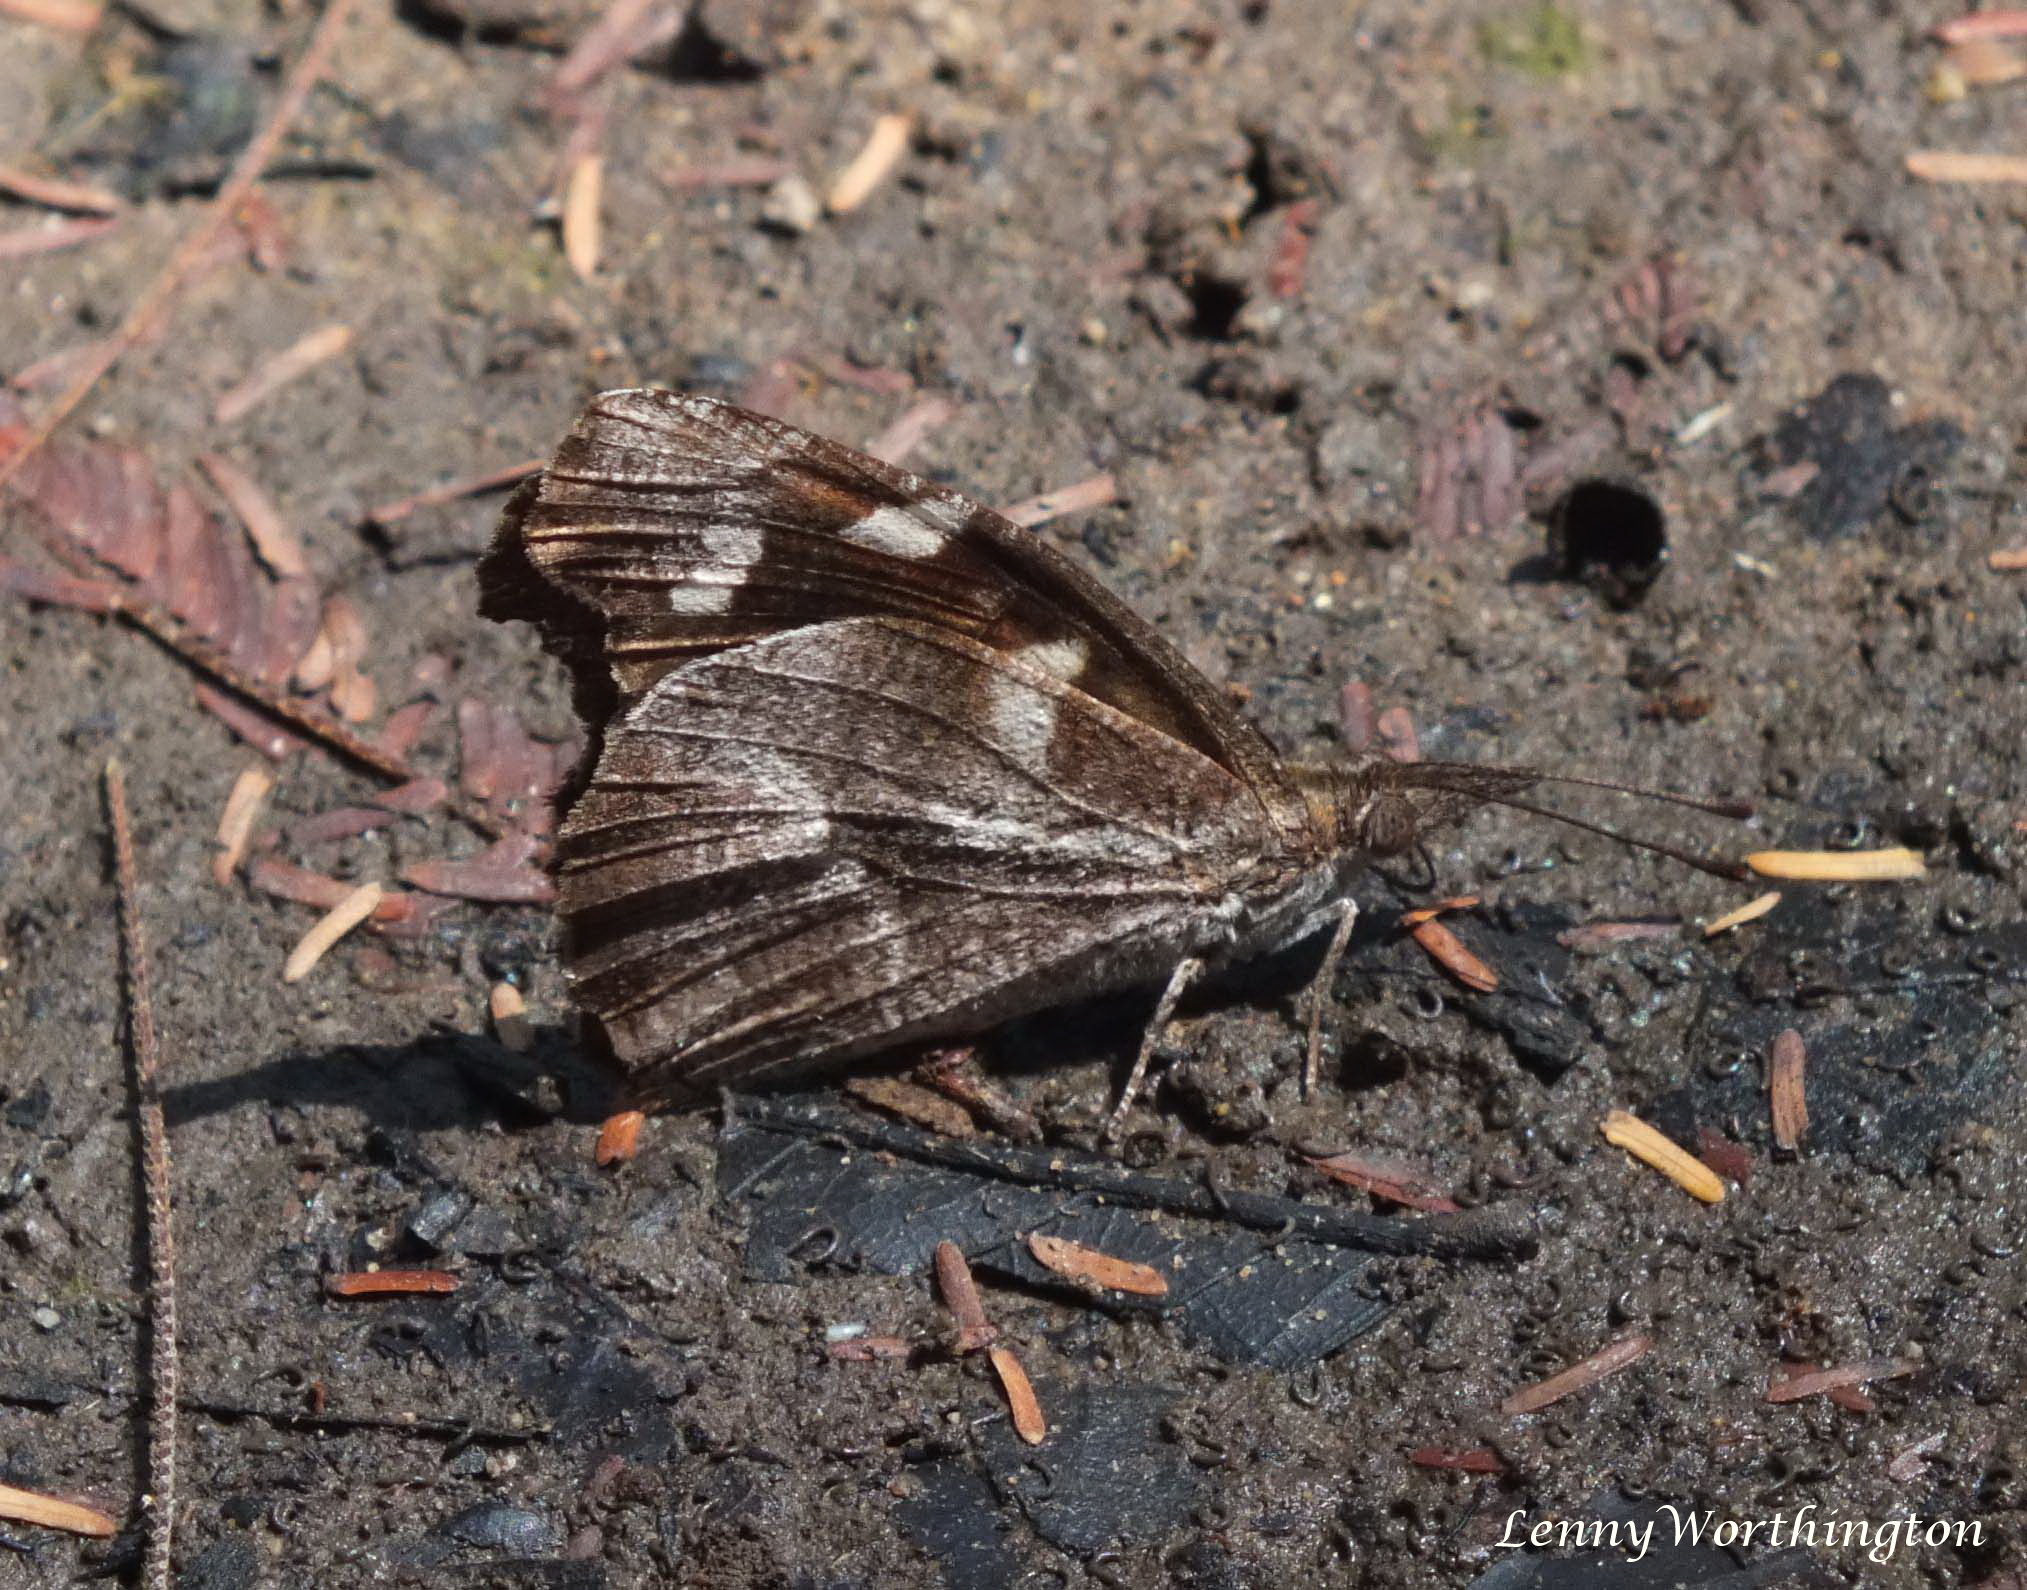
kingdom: Animalia
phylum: Arthropoda
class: Insecta
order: Lepidoptera
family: Nymphalidae
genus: Libythea
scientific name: Libythea narina
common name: Whitespotted beak
